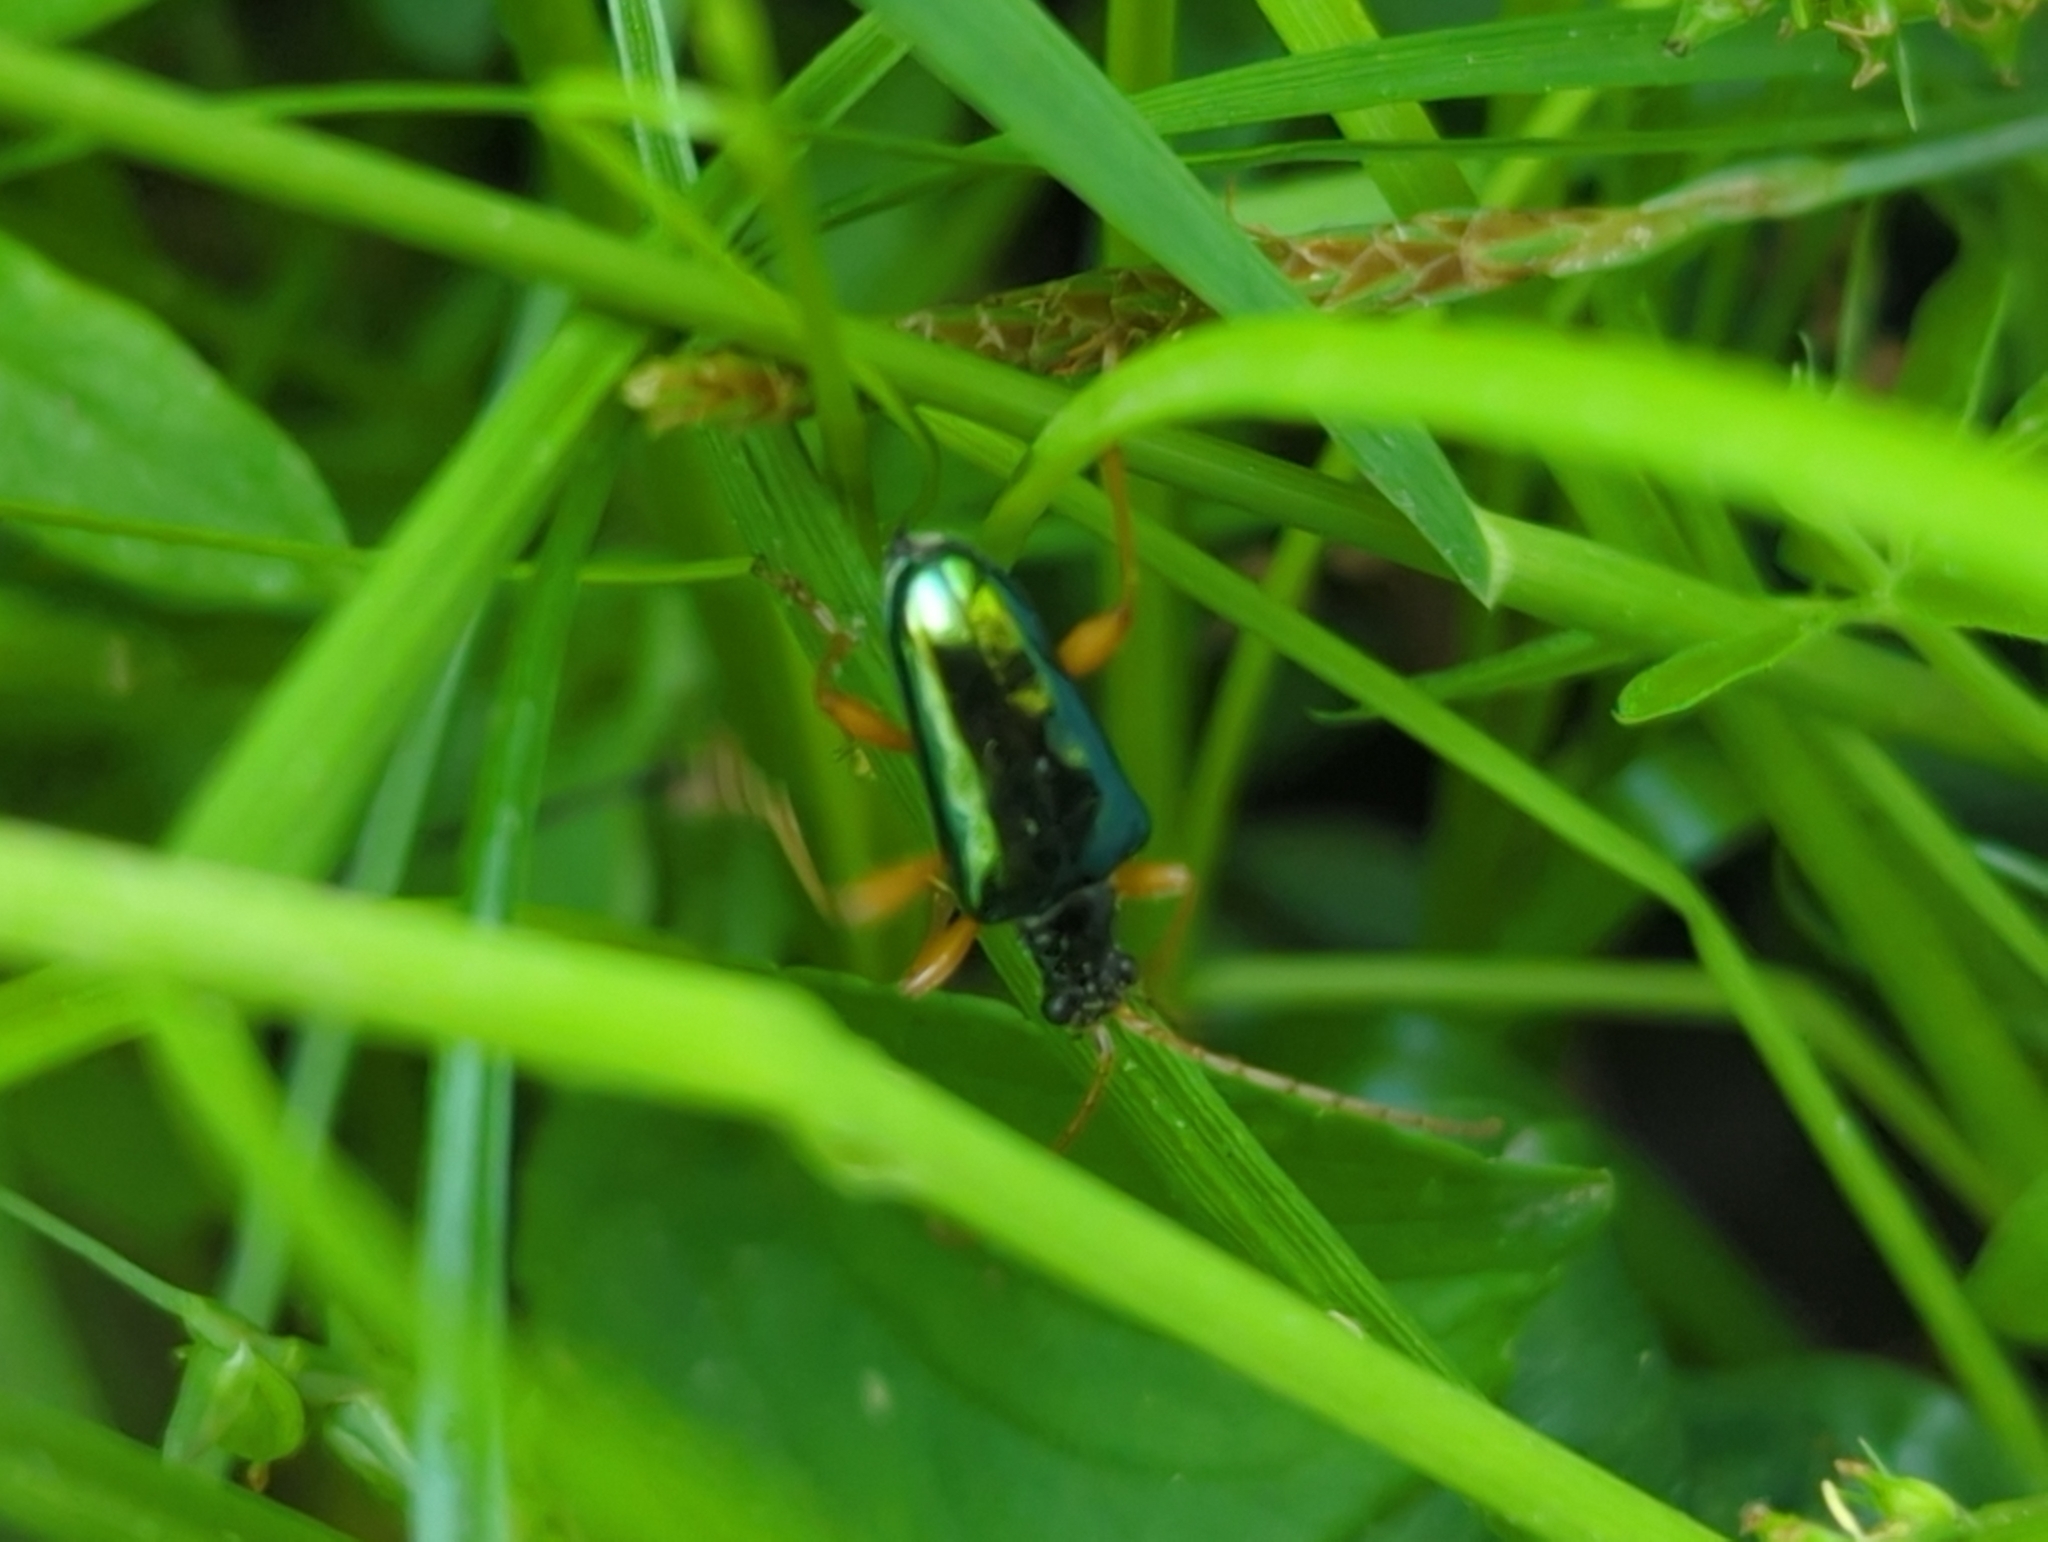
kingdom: Animalia
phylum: Arthropoda
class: Insecta
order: Coleoptera
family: Cerambycidae
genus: Gaurotes
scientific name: Gaurotes cyanipennis
